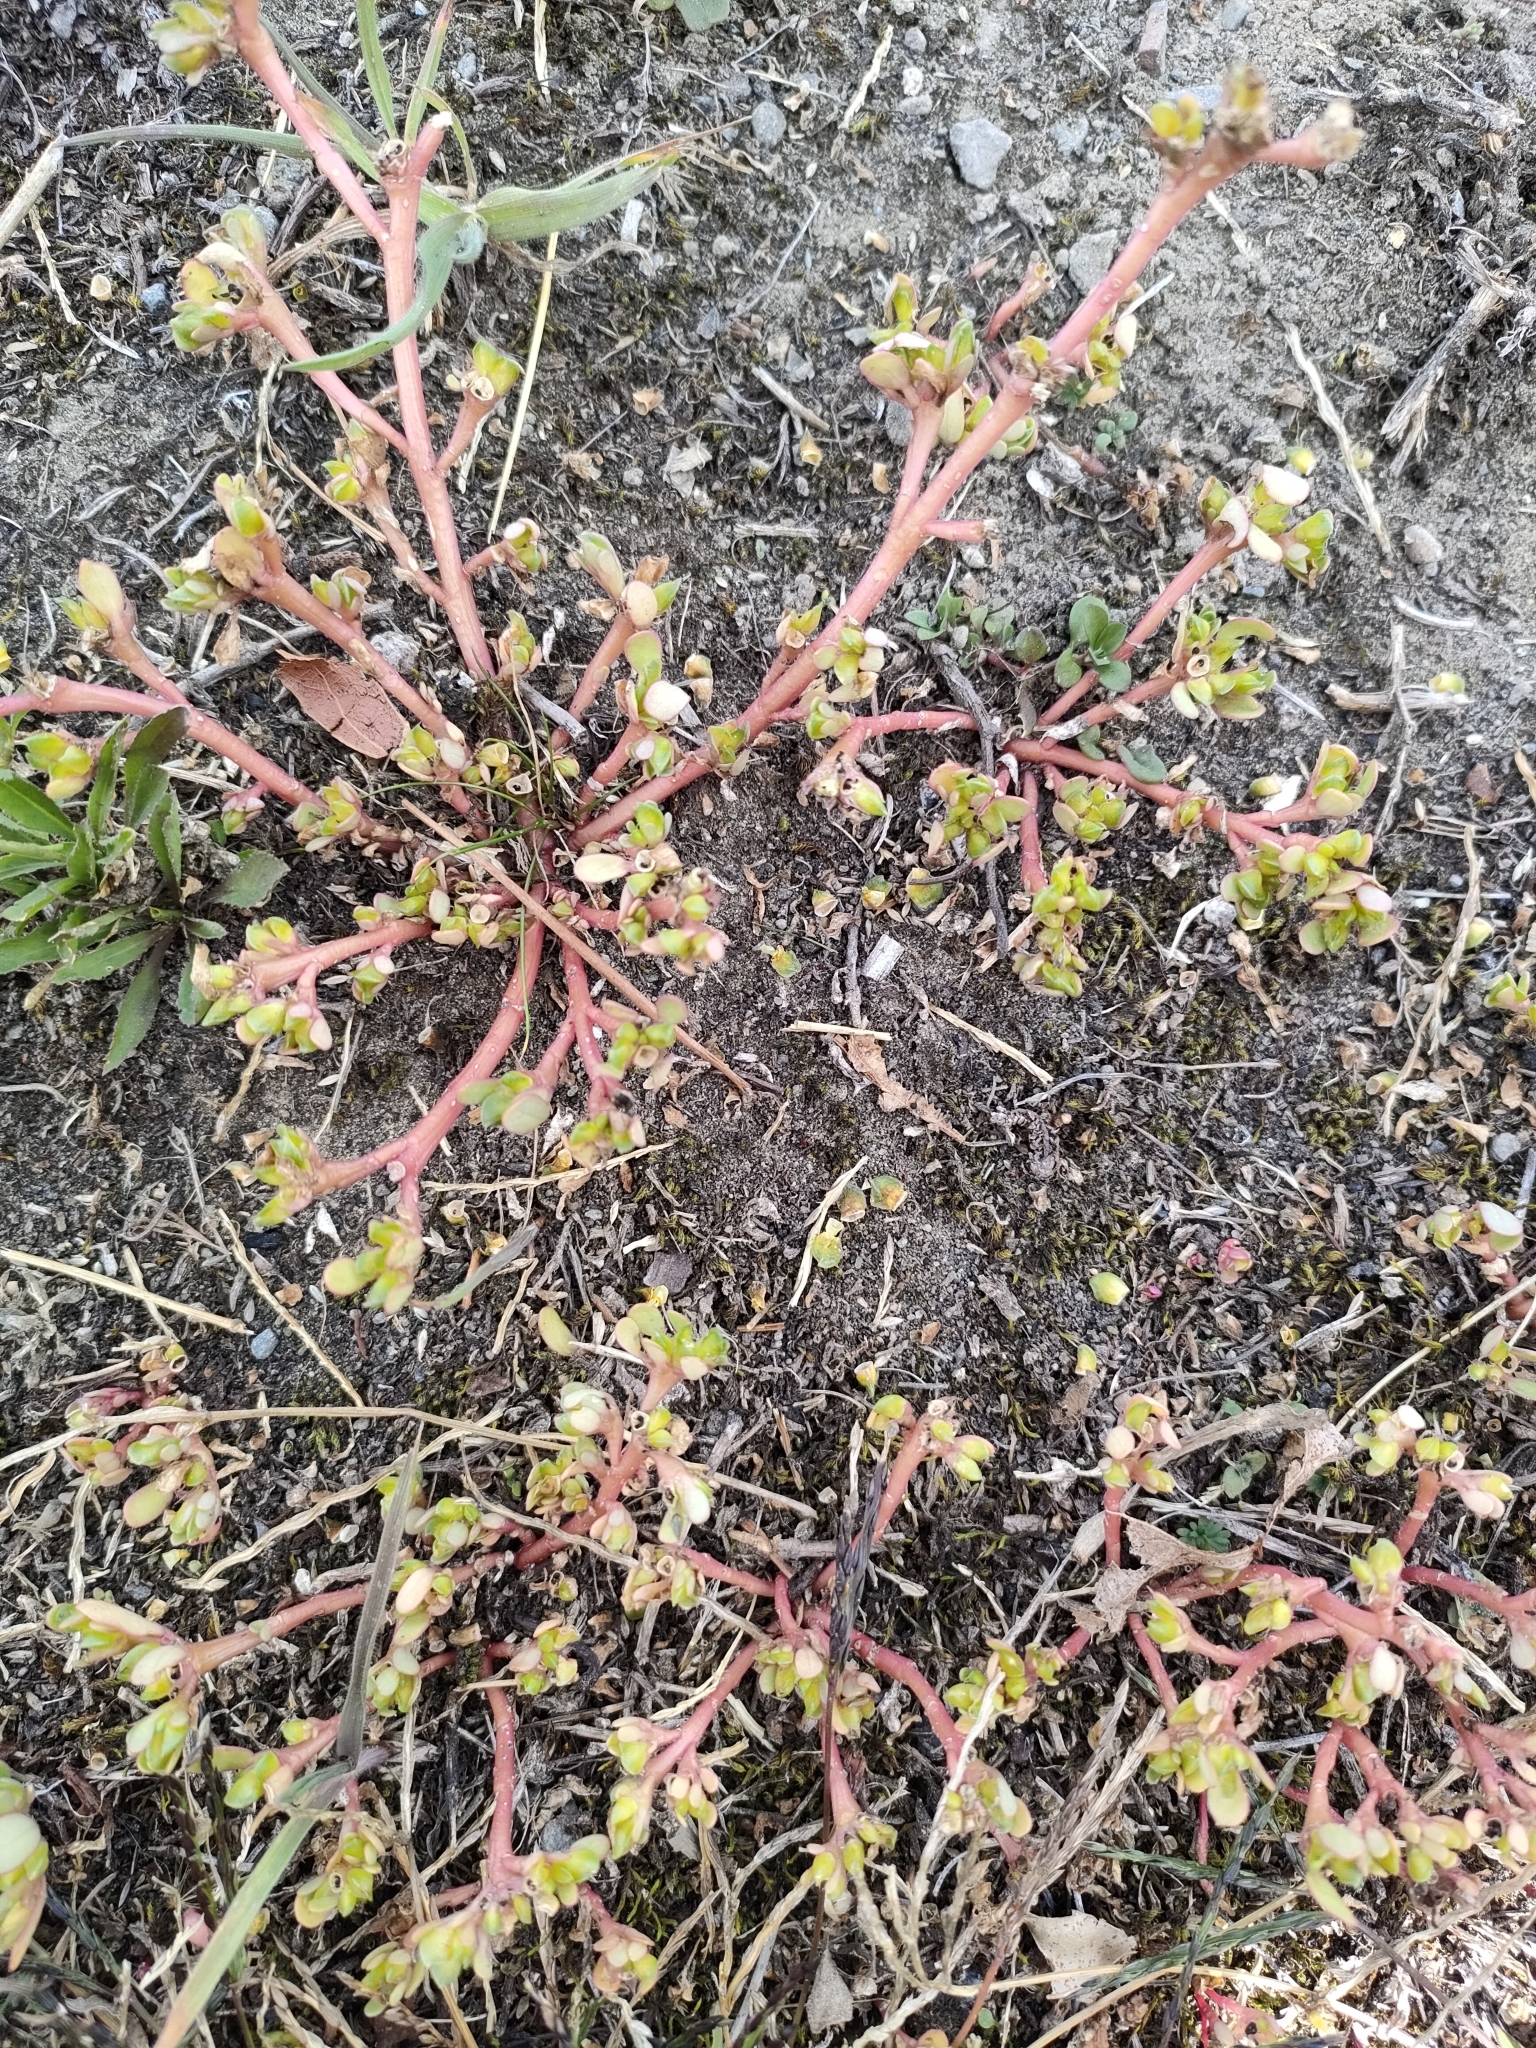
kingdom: Plantae
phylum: Tracheophyta
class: Magnoliopsida
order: Caryophyllales
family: Portulacaceae
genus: Portulaca
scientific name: Portulaca oleracea
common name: Common purslane
